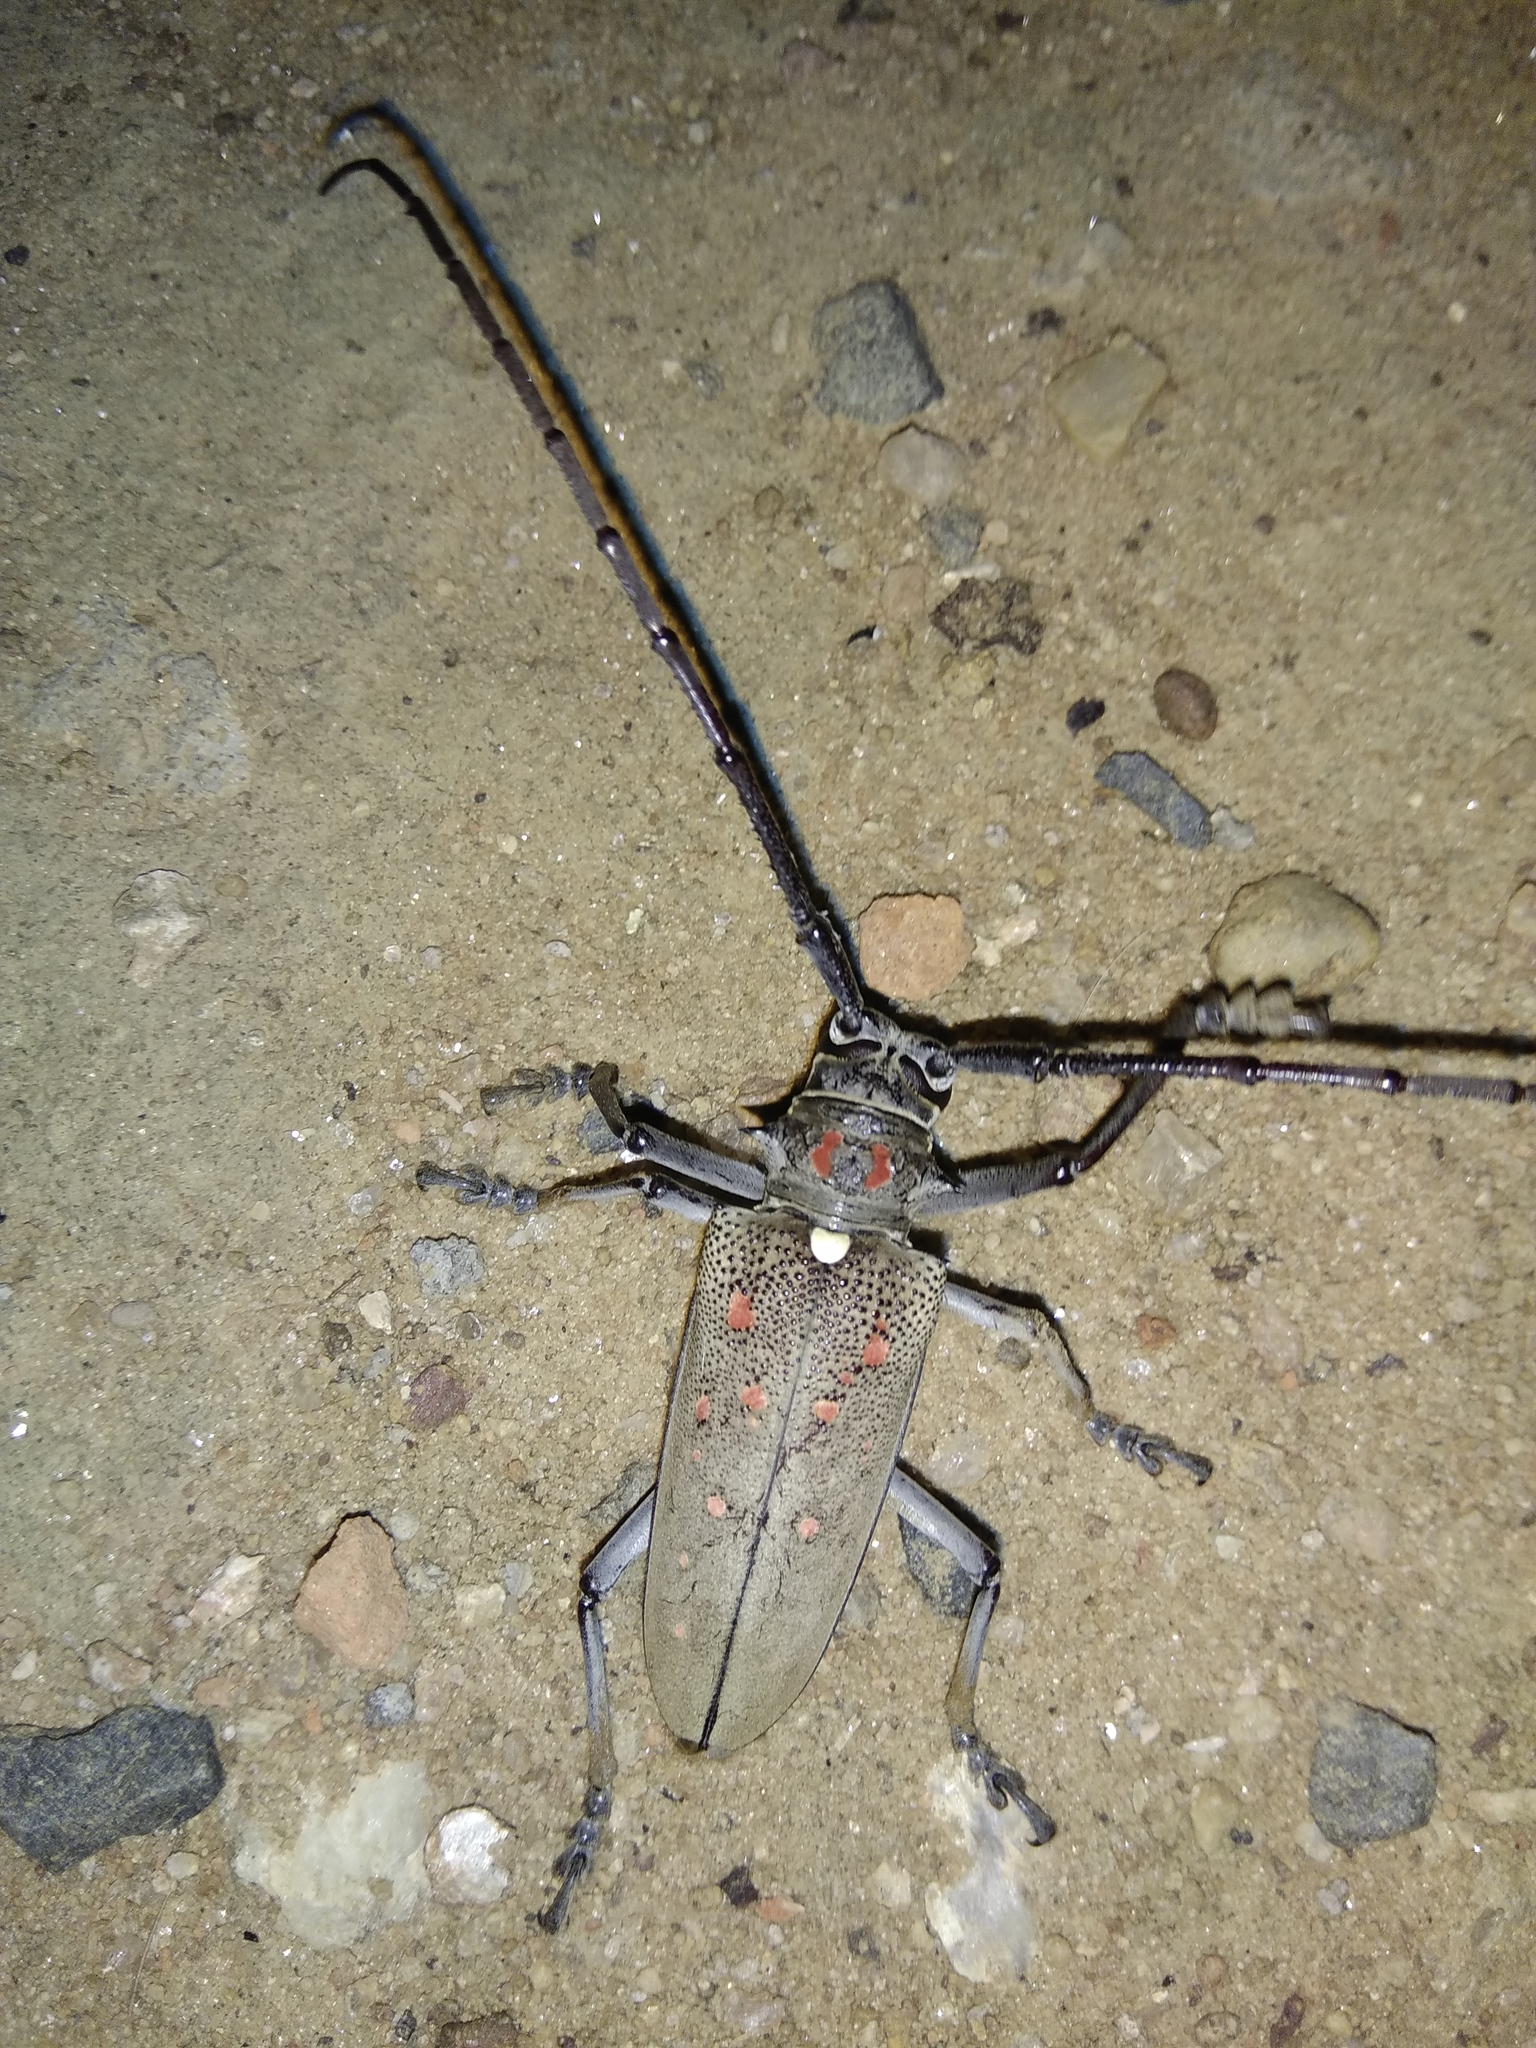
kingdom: Animalia
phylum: Arthropoda
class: Insecta
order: Coleoptera
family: Cerambycidae
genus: Batocera
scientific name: Batocera rufomaculata
